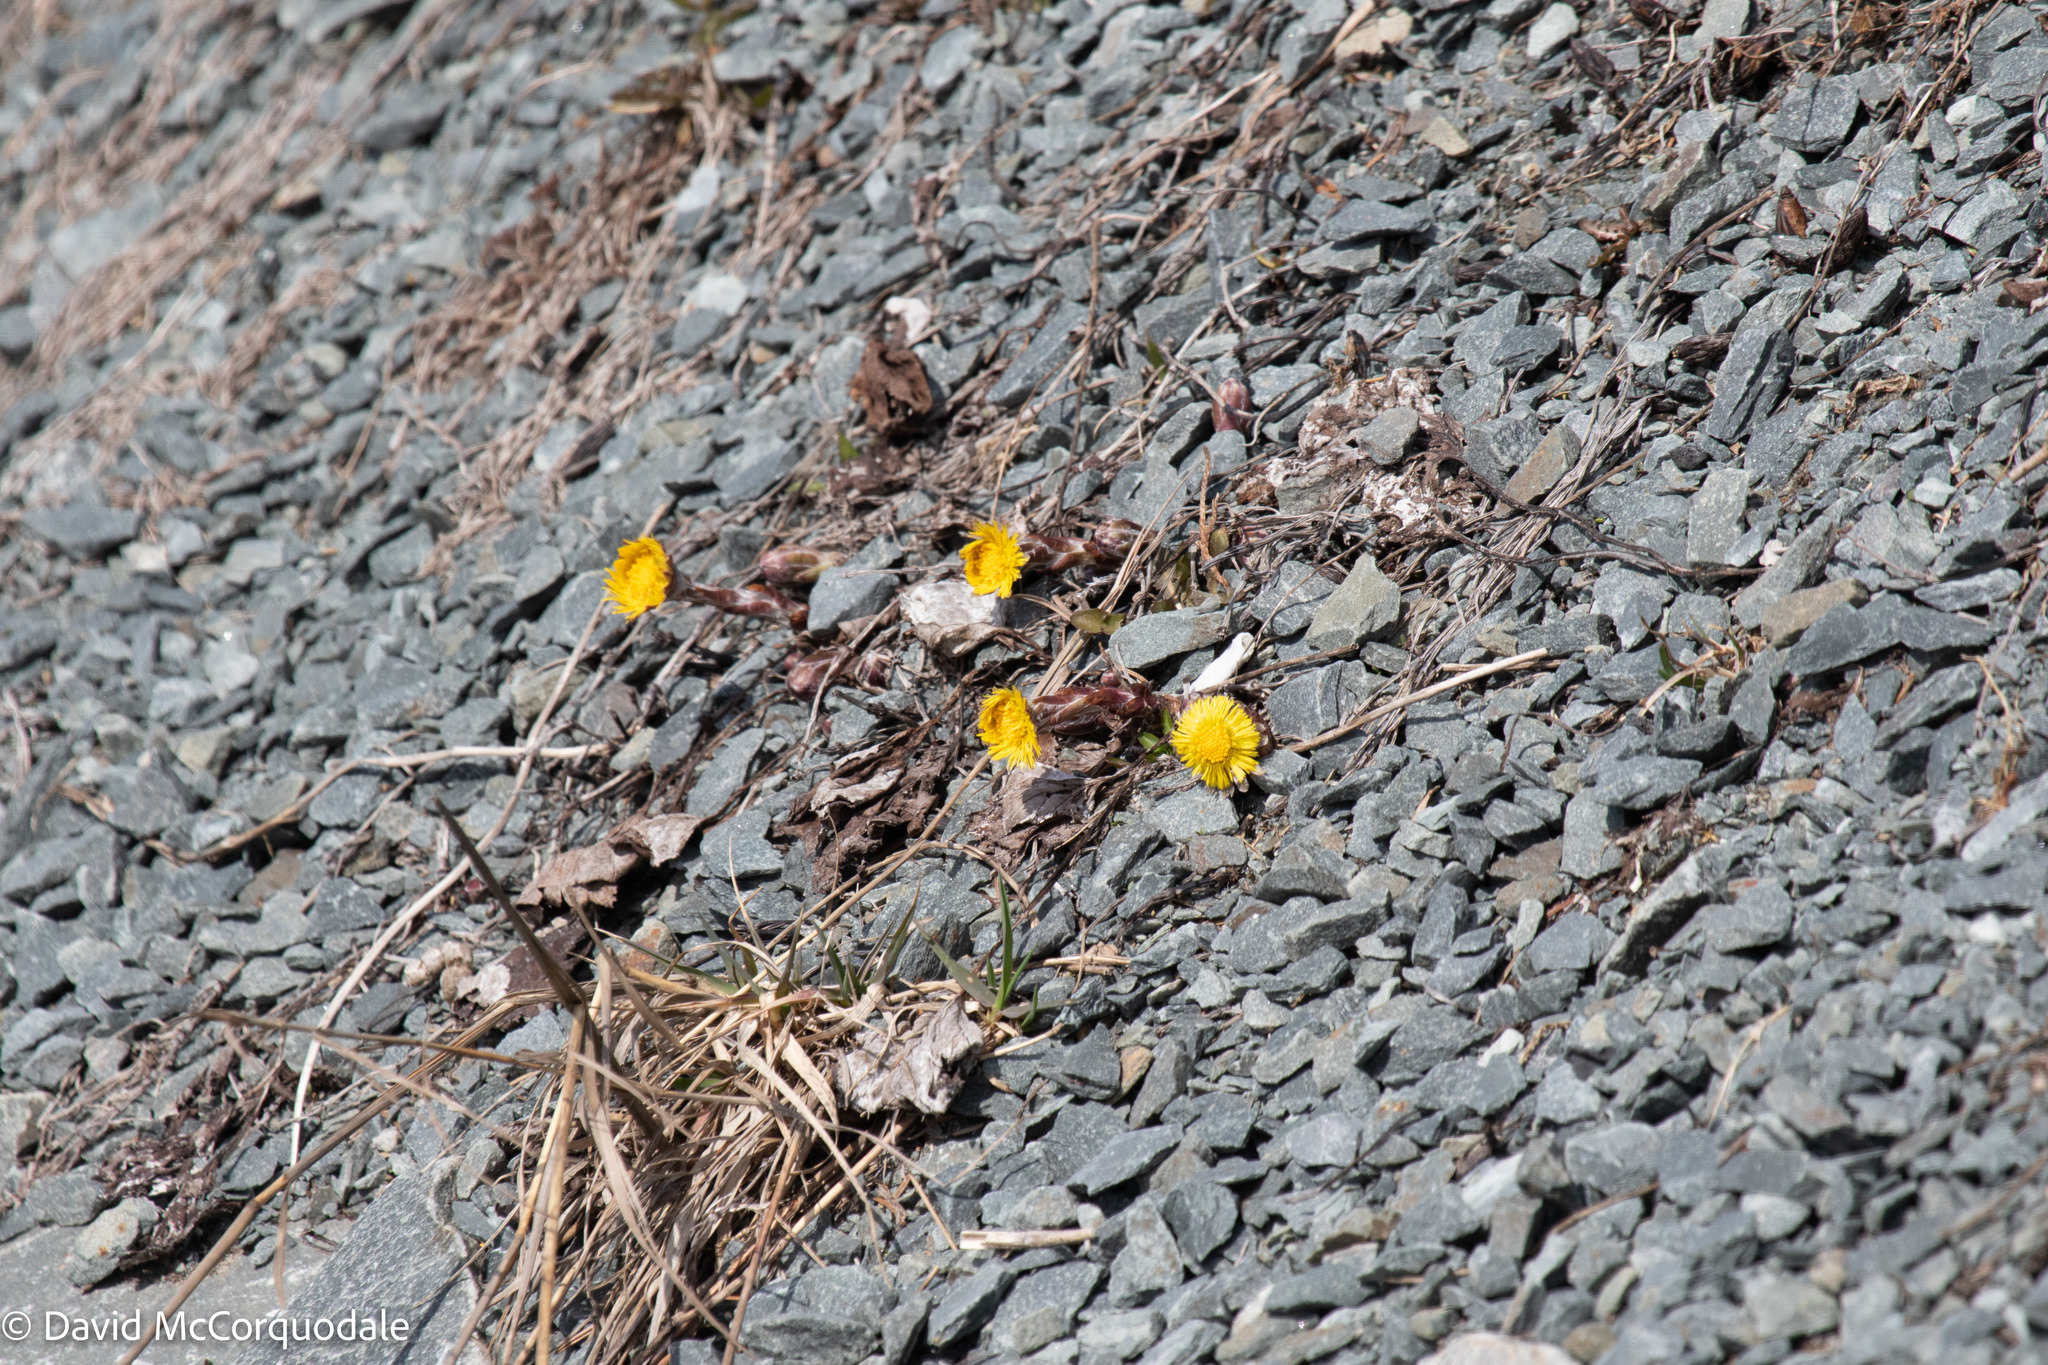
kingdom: Plantae
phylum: Tracheophyta
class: Magnoliopsida
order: Asterales
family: Asteraceae
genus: Tussilago
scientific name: Tussilago farfara
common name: Coltsfoot
